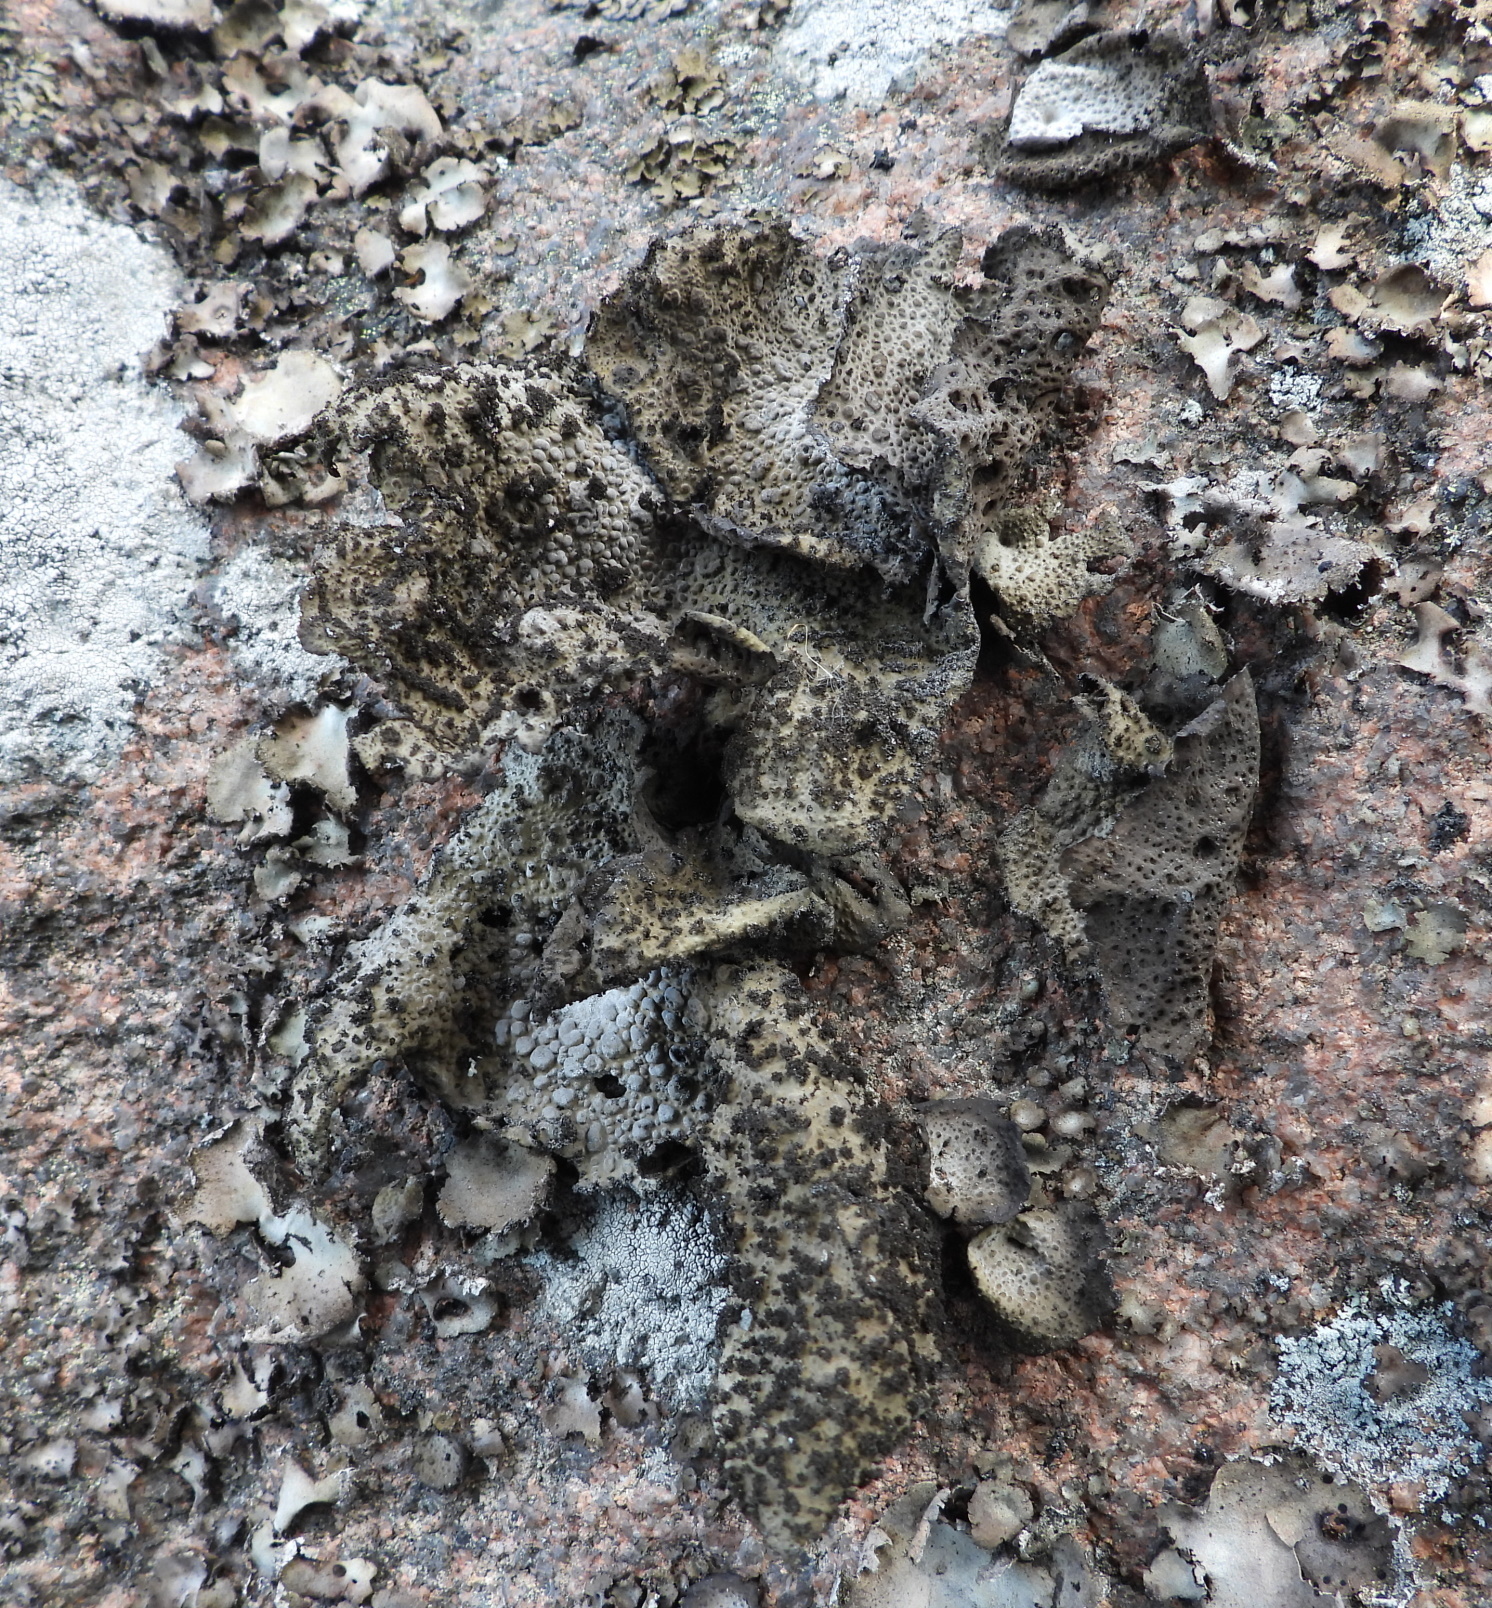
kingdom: Fungi
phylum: Ascomycota
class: Lecanoromycetes
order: Umbilicariales
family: Umbilicariaceae
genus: Lasallia
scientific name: Lasallia pustulata
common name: Blistered toadskin lichen
